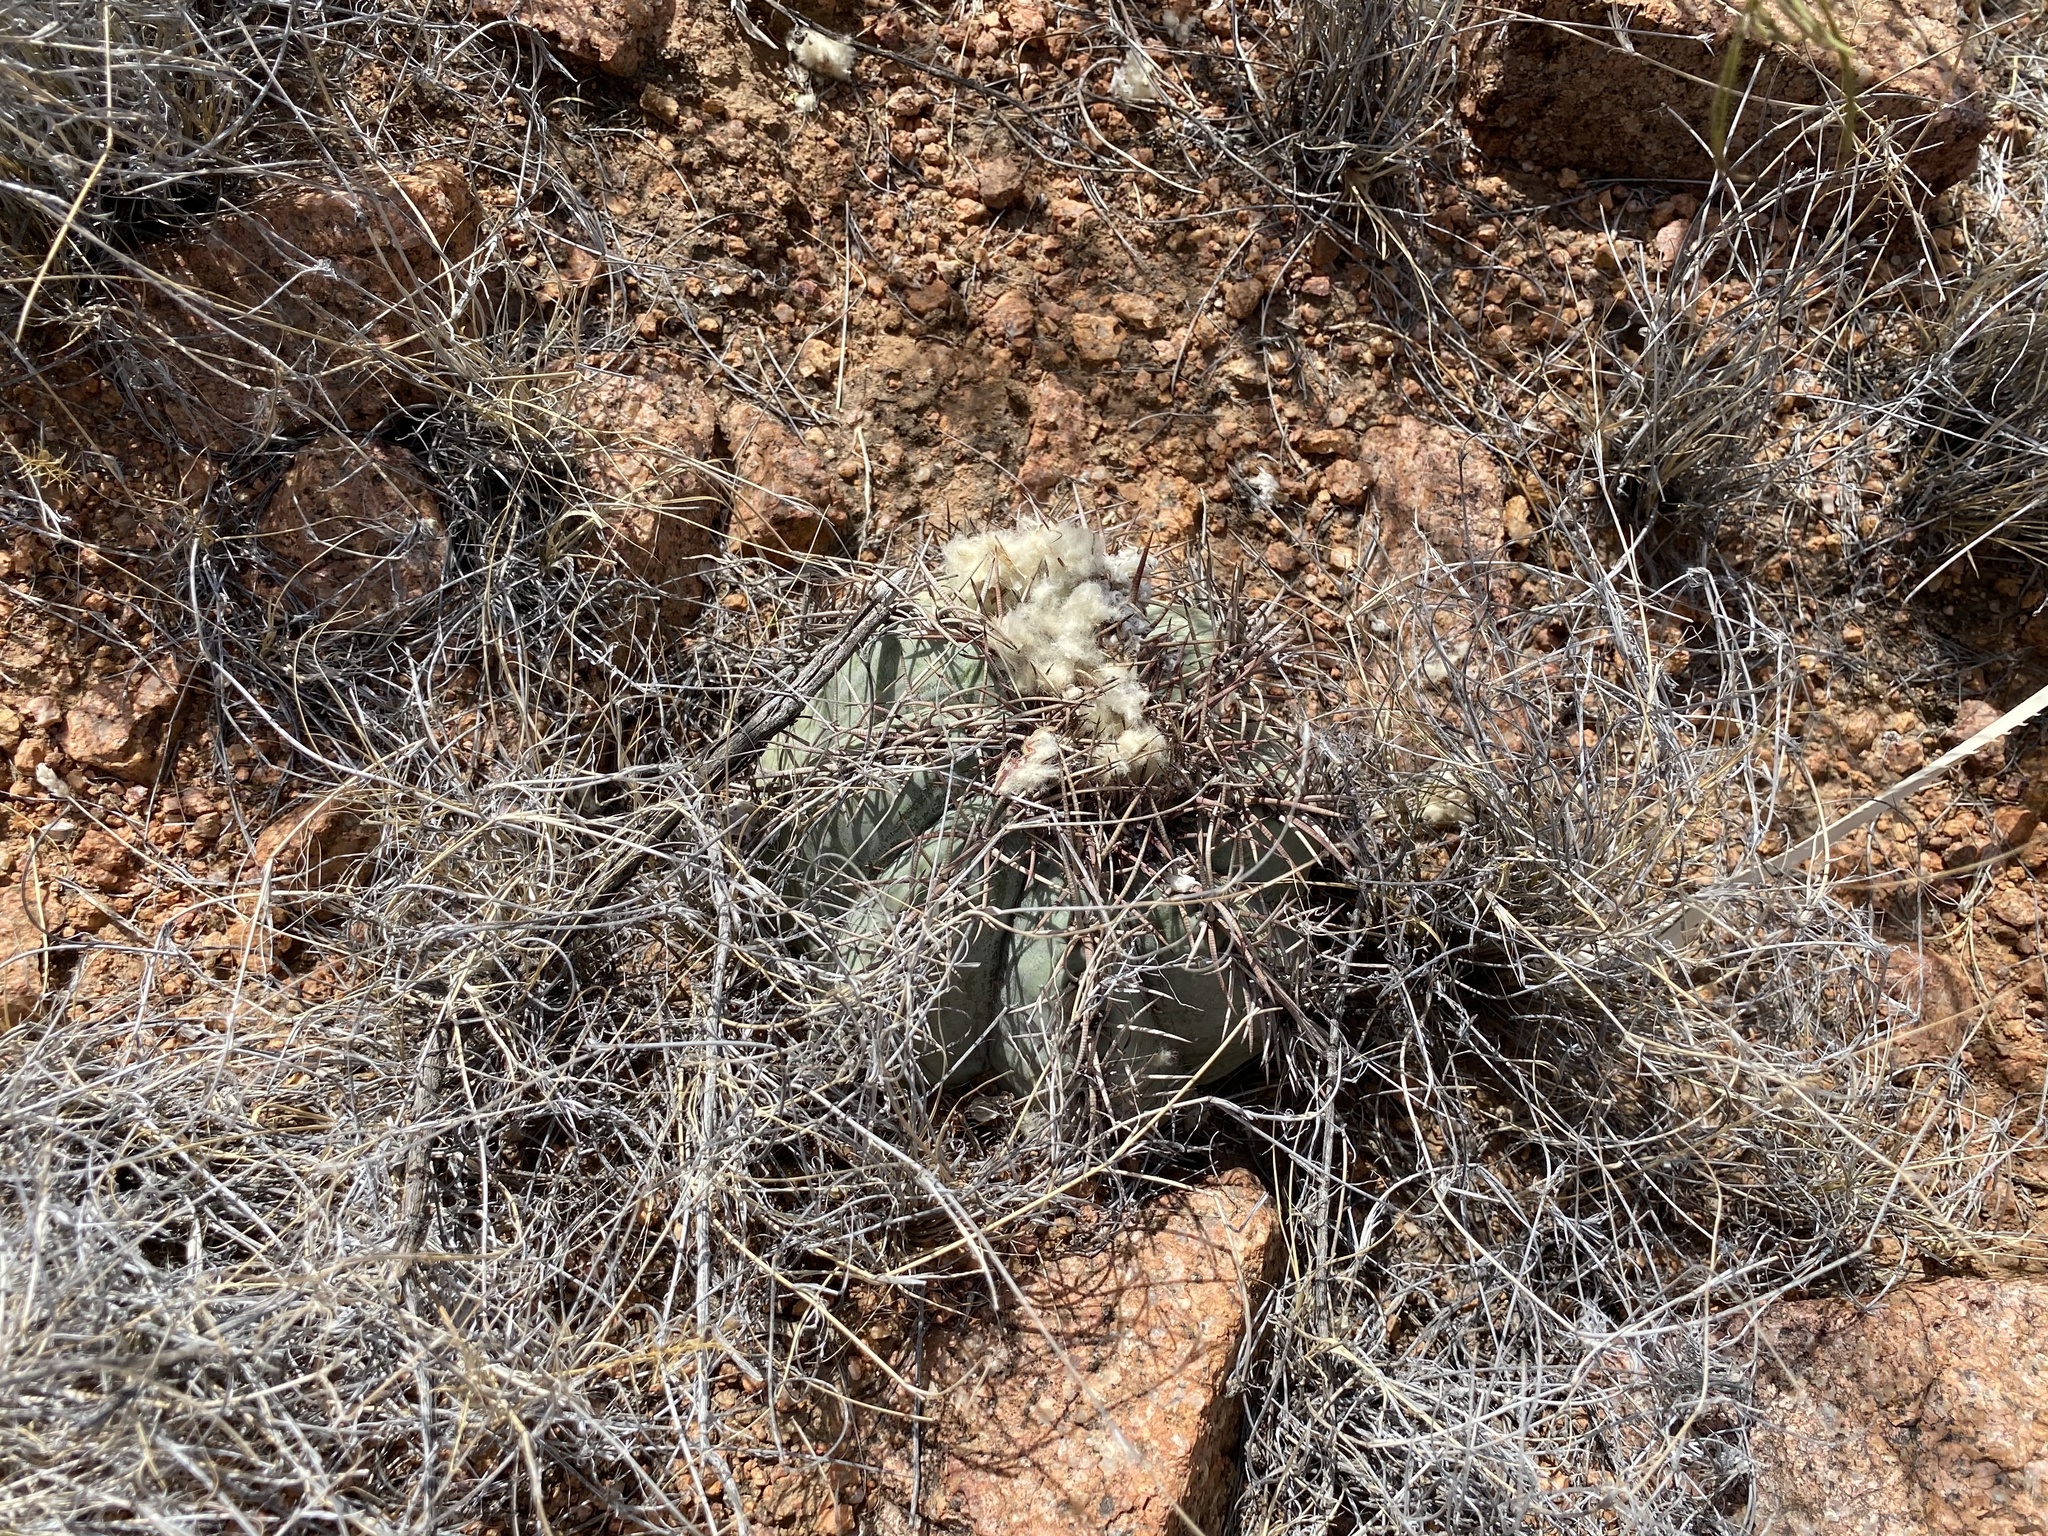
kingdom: Plantae
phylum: Tracheophyta
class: Magnoliopsida
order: Caryophyllales
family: Cactaceae
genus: Echinocactus
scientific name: Echinocactus horizonthalonius
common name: Devilshead
